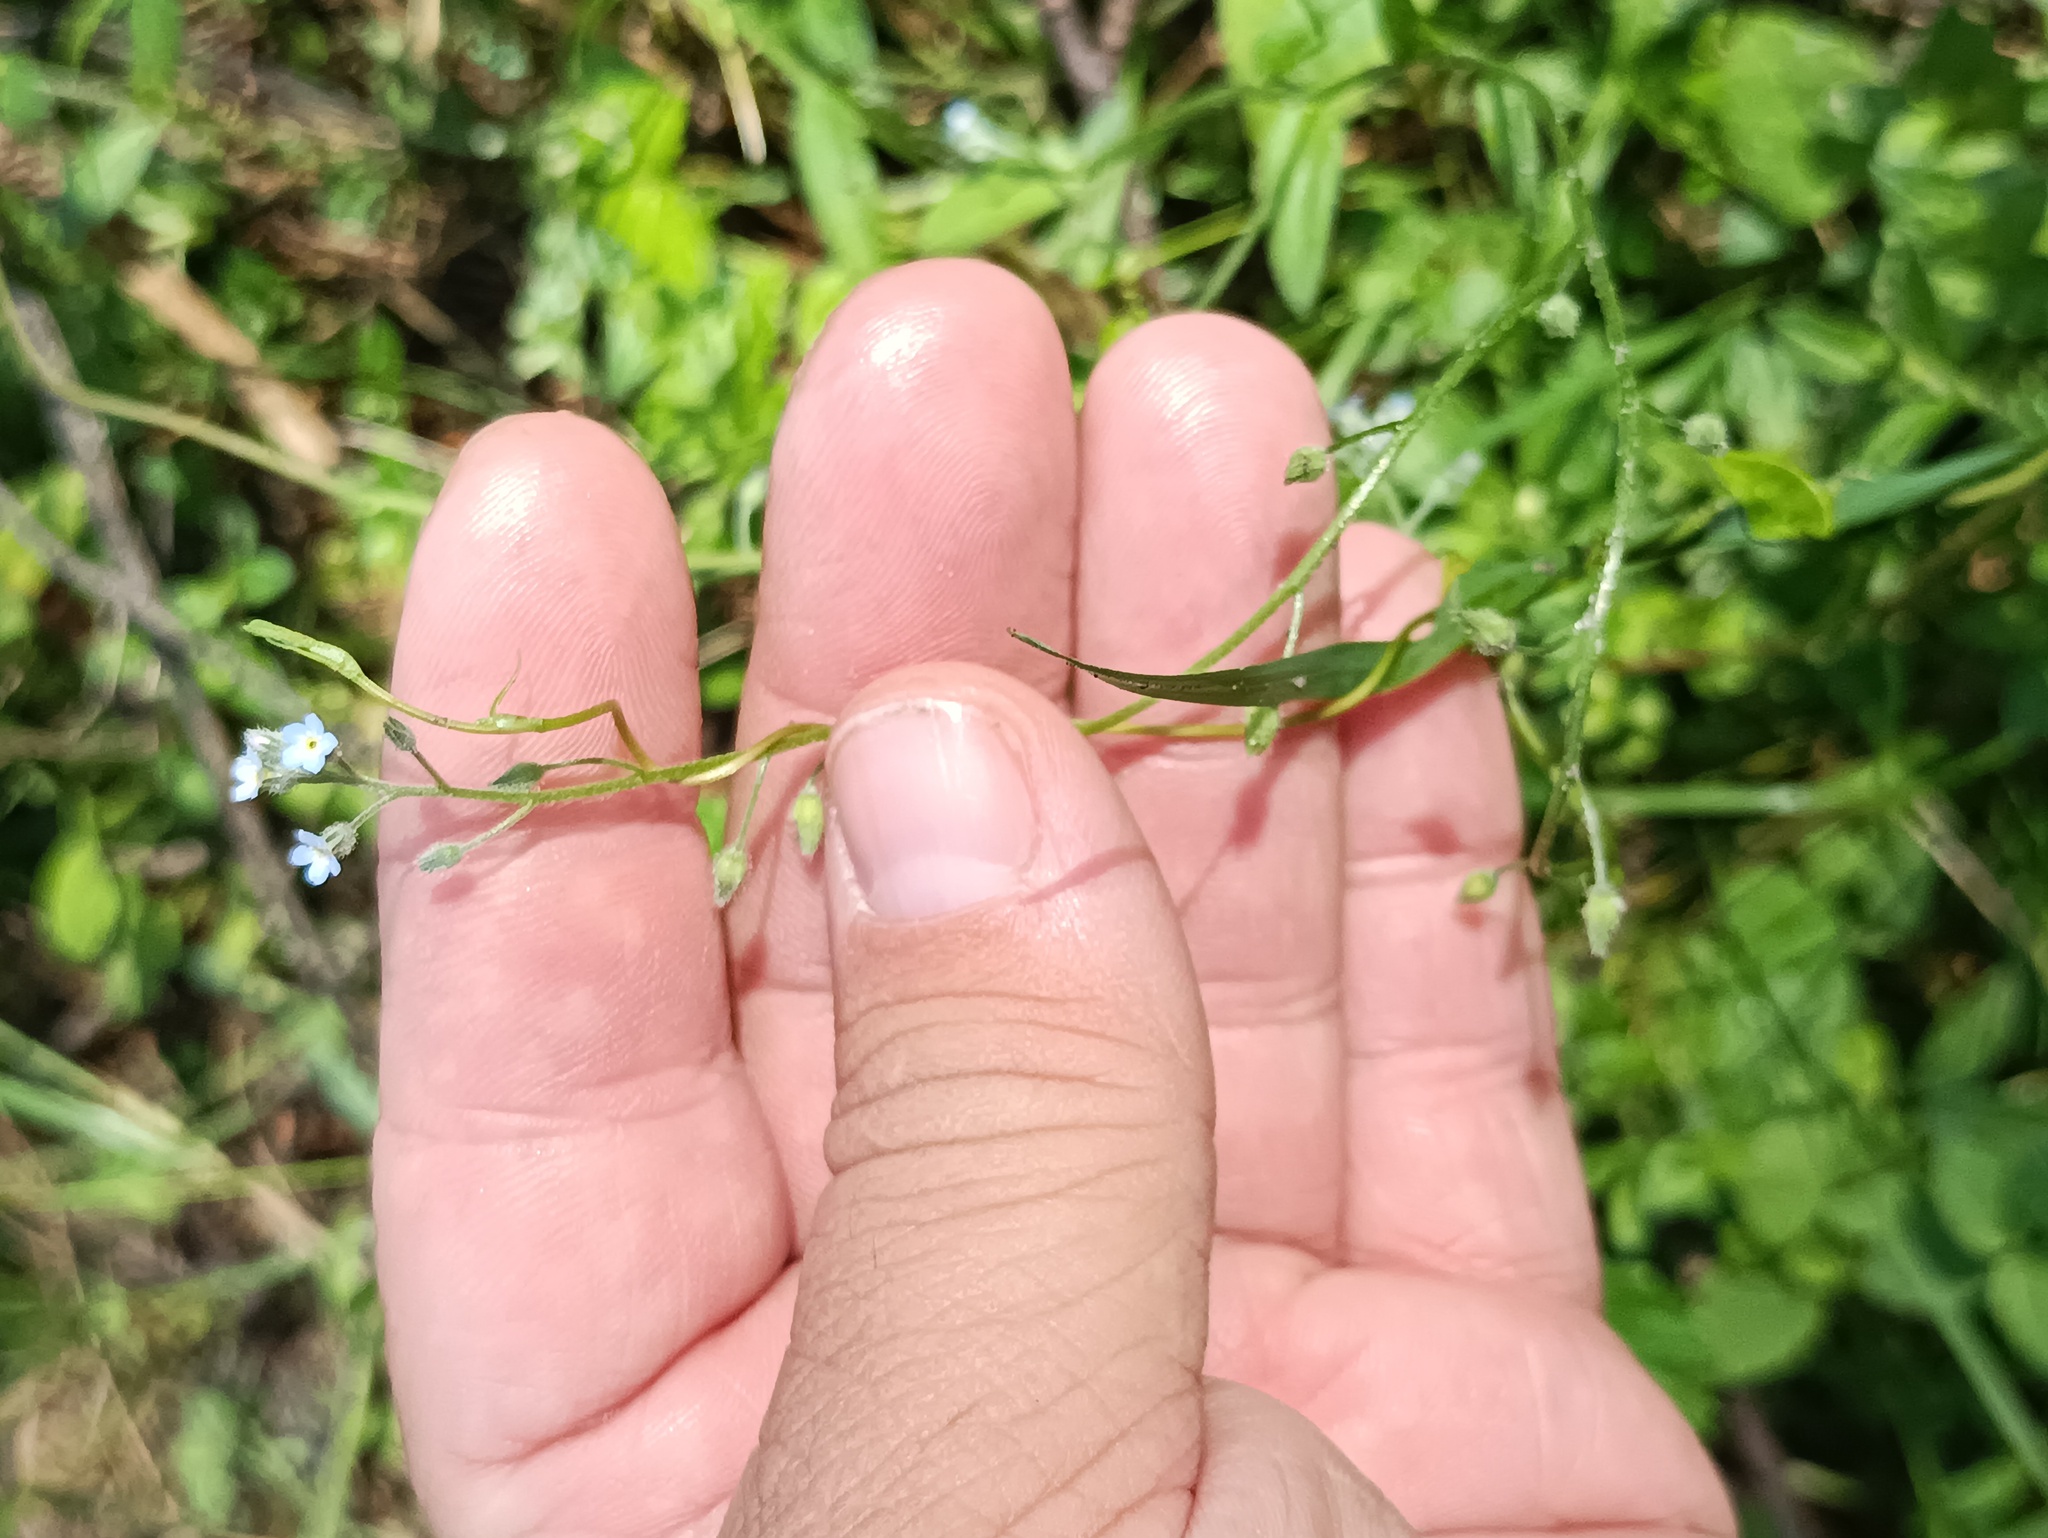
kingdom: Plantae
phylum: Tracheophyta
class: Magnoliopsida
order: Boraginales
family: Boraginaceae
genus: Myosotis
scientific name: Myosotis arvensis
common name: Field forget-me-not
